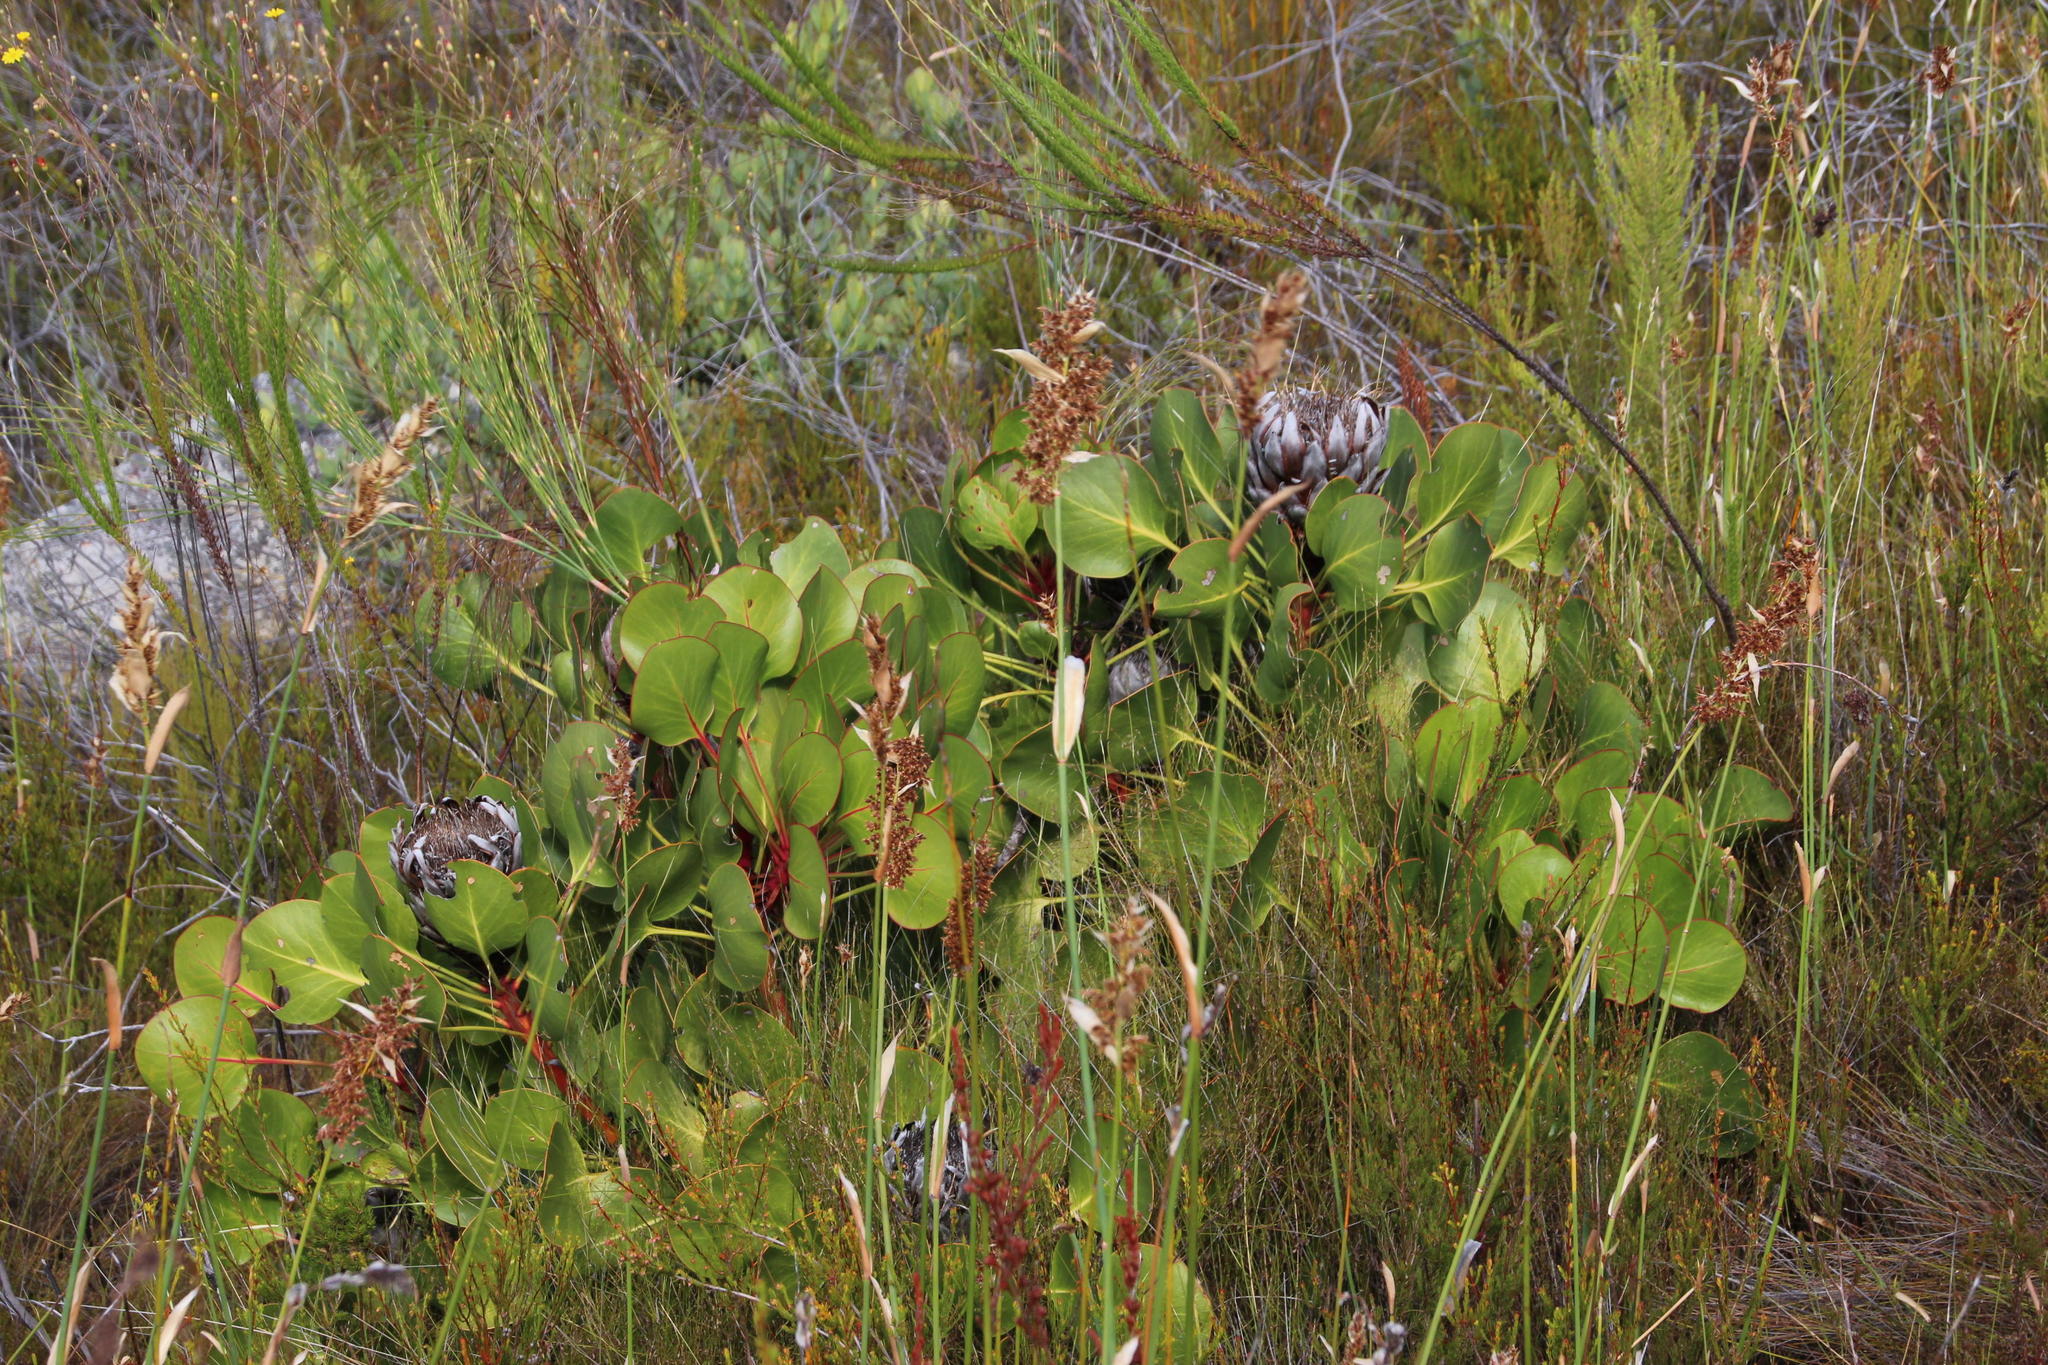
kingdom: Plantae
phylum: Tracheophyta
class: Magnoliopsida
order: Proteales
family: Proteaceae
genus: Protea
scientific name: Protea cynaroides
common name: King protea
